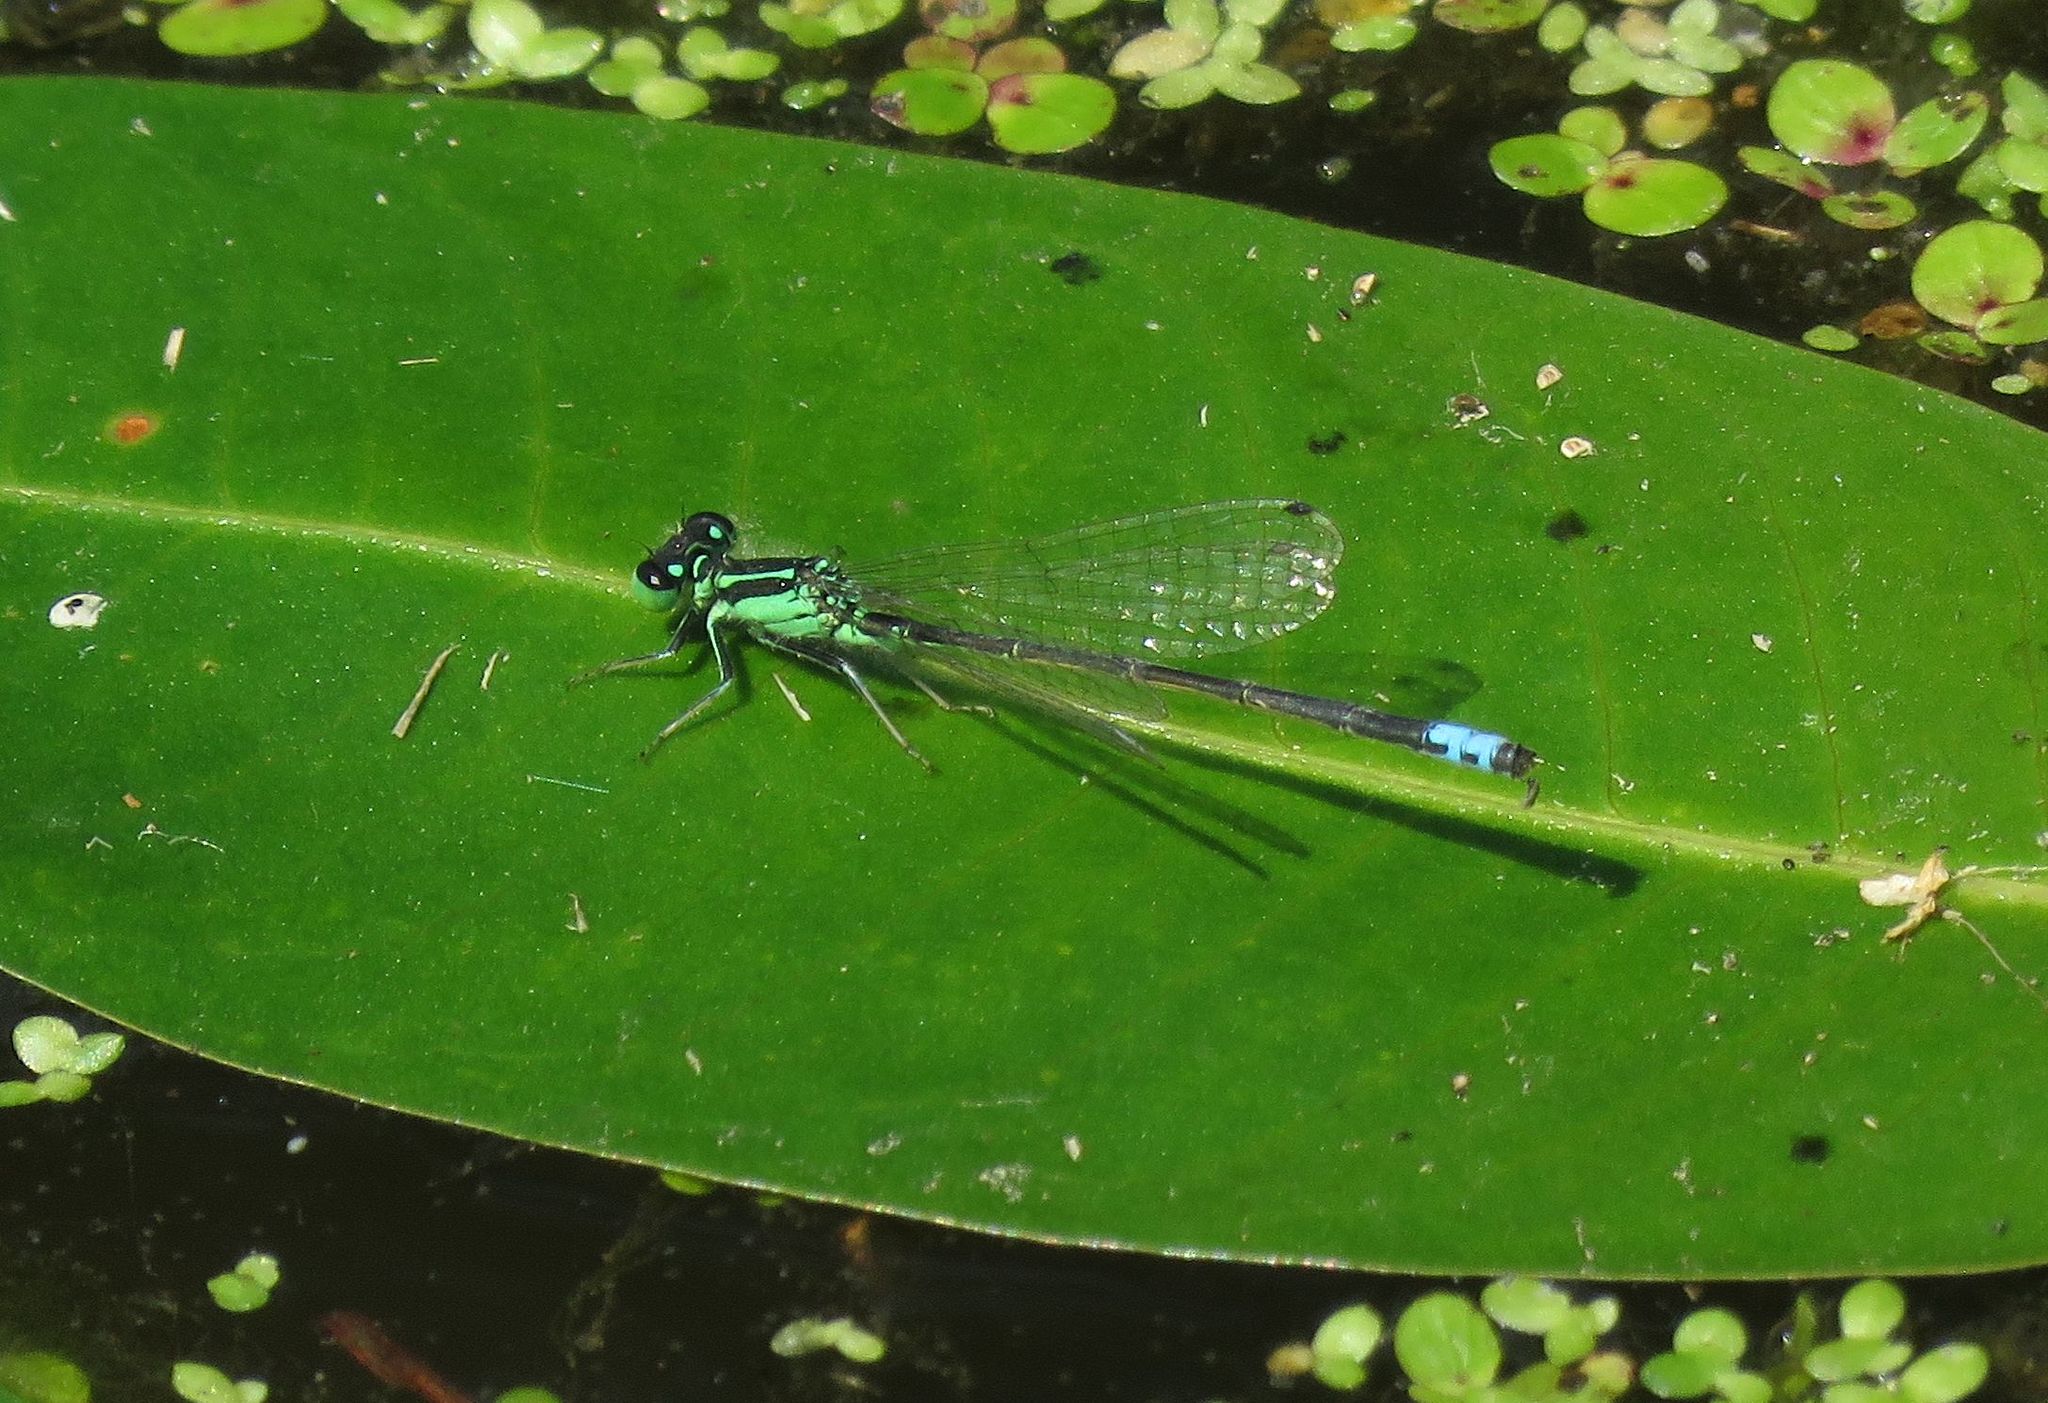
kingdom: Animalia
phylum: Arthropoda
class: Insecta
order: Odonata
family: Coenagrionidae
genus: Ischnura
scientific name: Ischnura verticalis
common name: Eastern forktail
